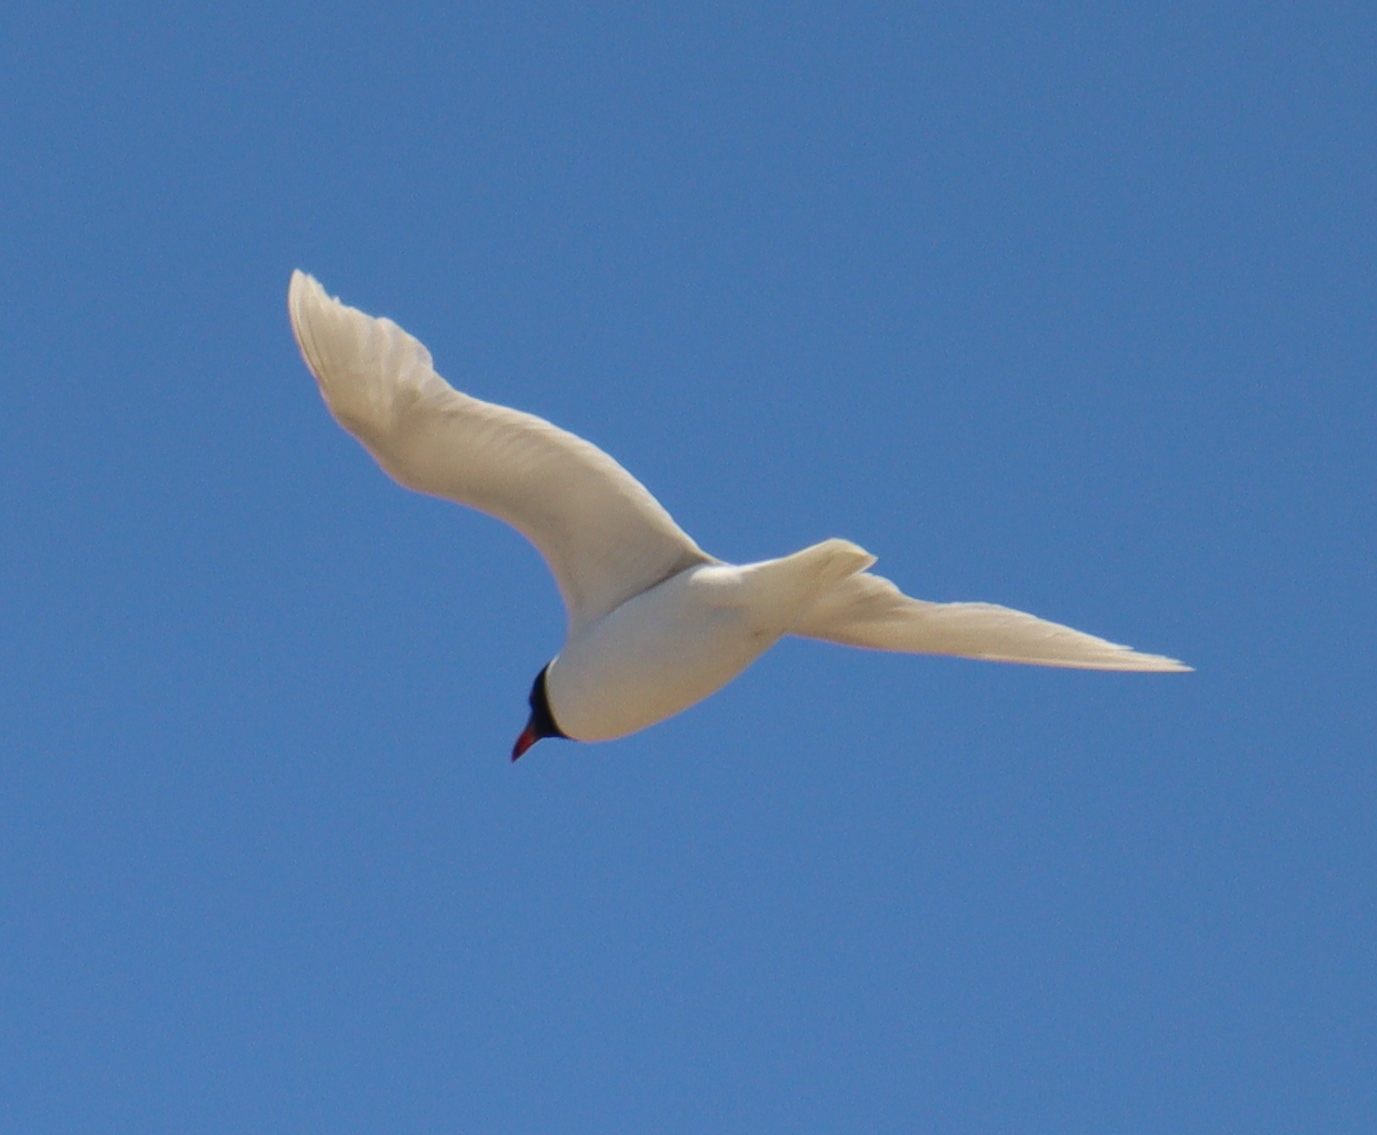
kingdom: Animalia
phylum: Chordata
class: Aves
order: Charadriiformes
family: Laridae
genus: Ichthyaetus
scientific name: Ichthyaetus melanocephalus
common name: Mediterranean gull
